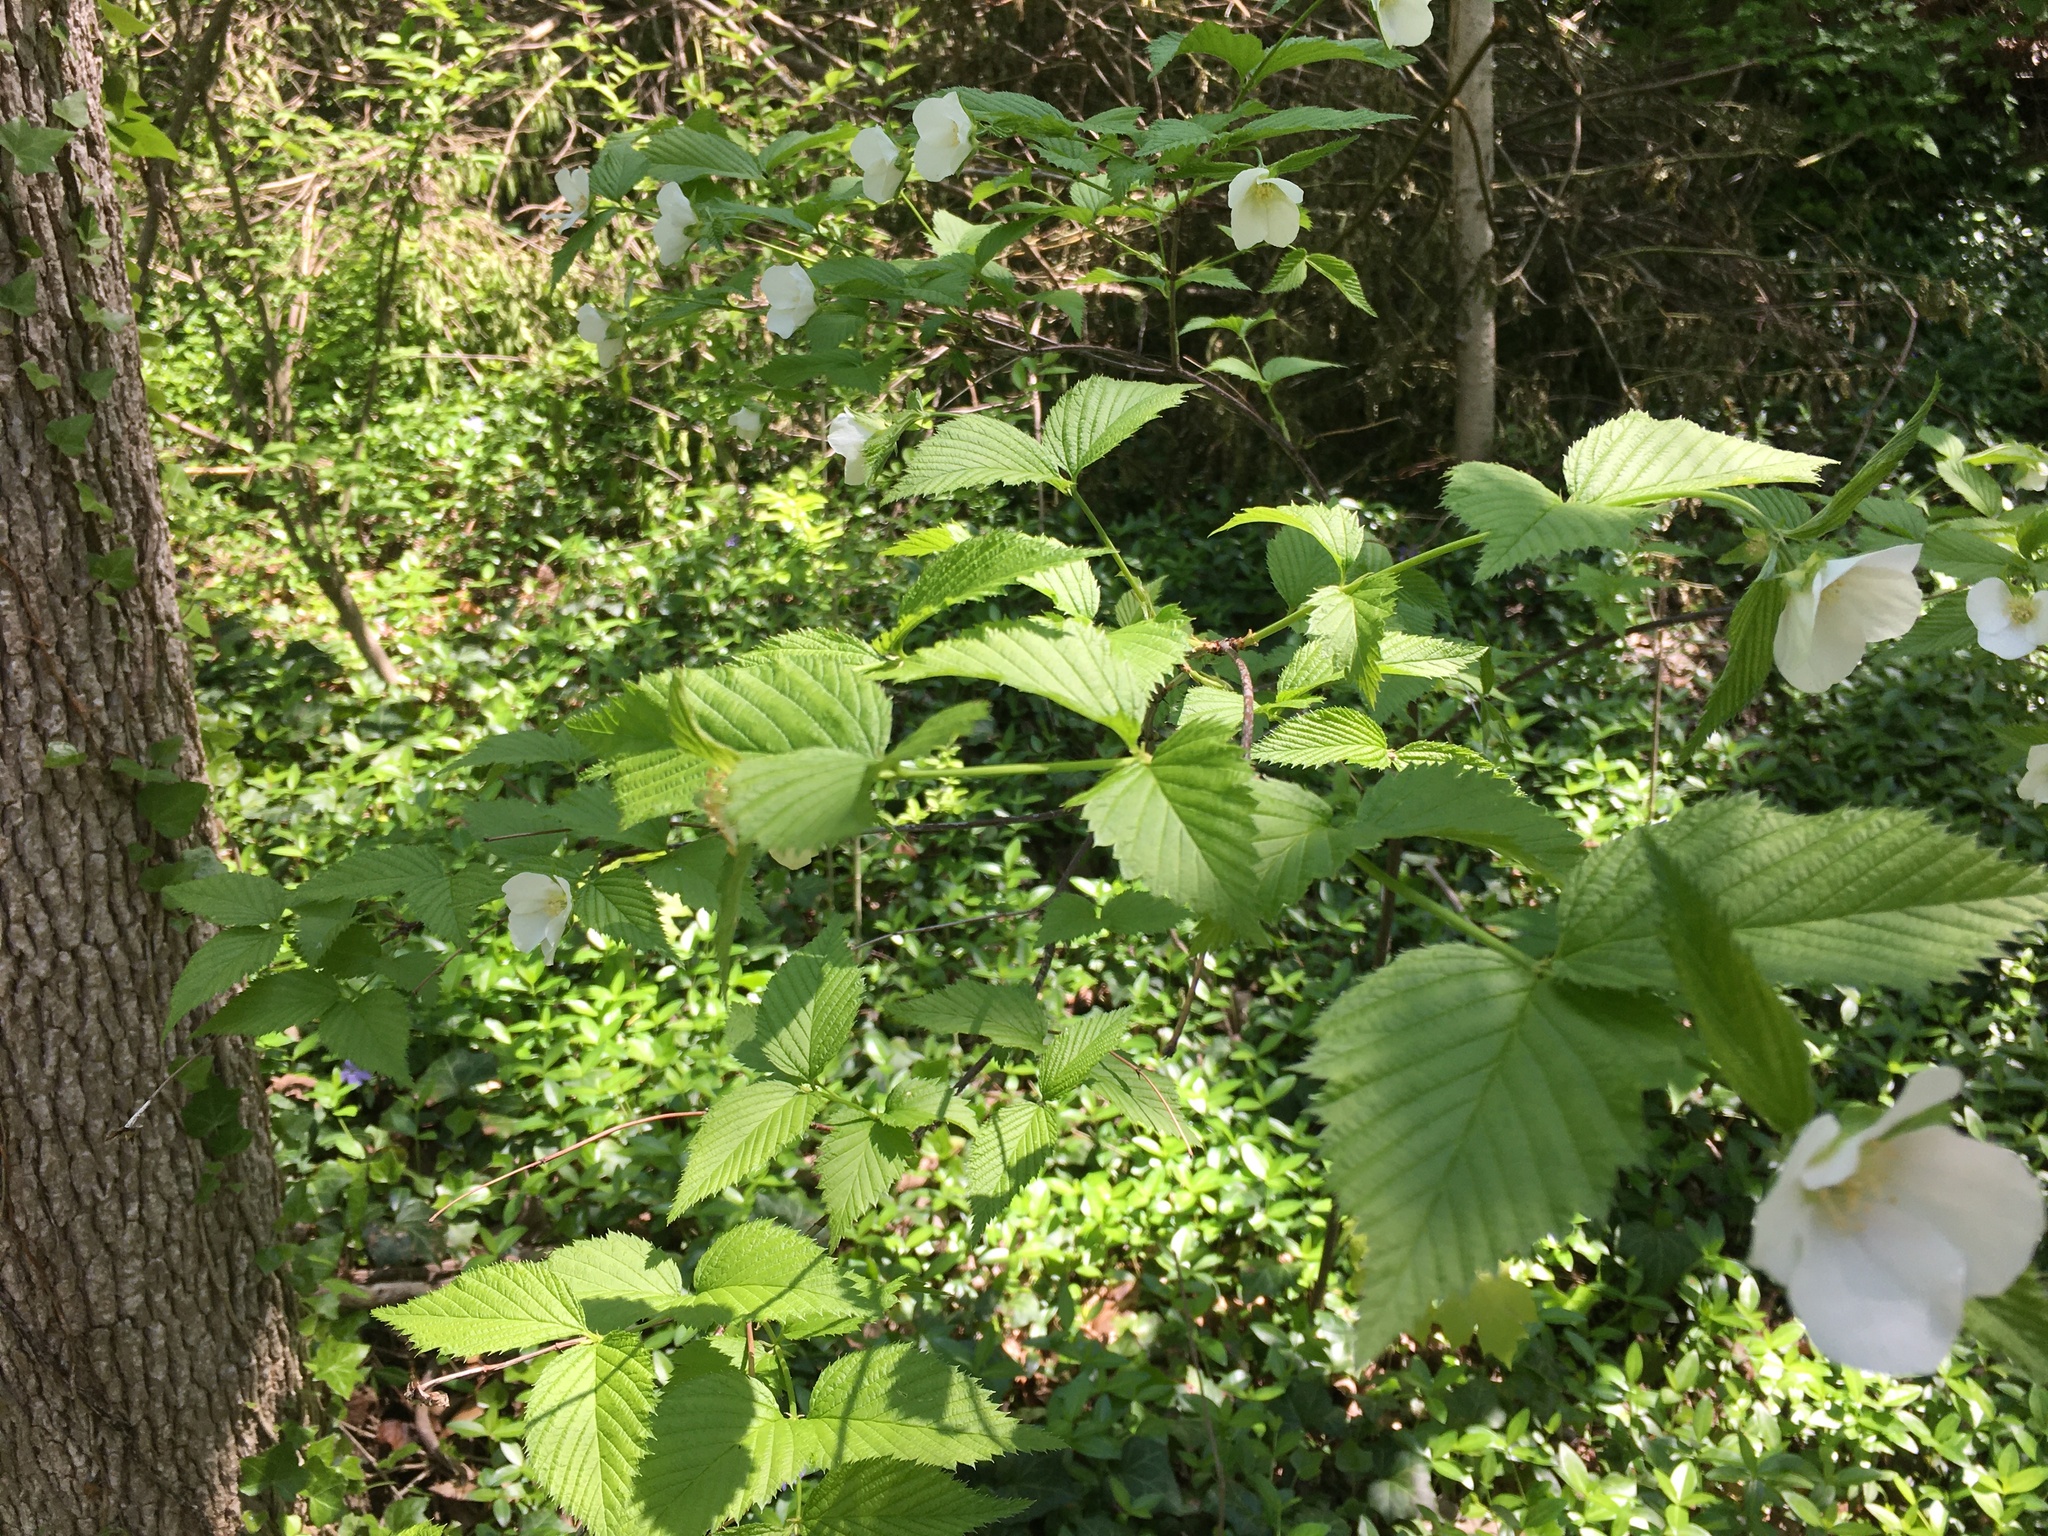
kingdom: Plantae
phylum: Tracheophyta
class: Magnoliopsida
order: Rosales
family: Rosaceae
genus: Rhodotypos
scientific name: Rhodotypos scandens
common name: Jetbead
